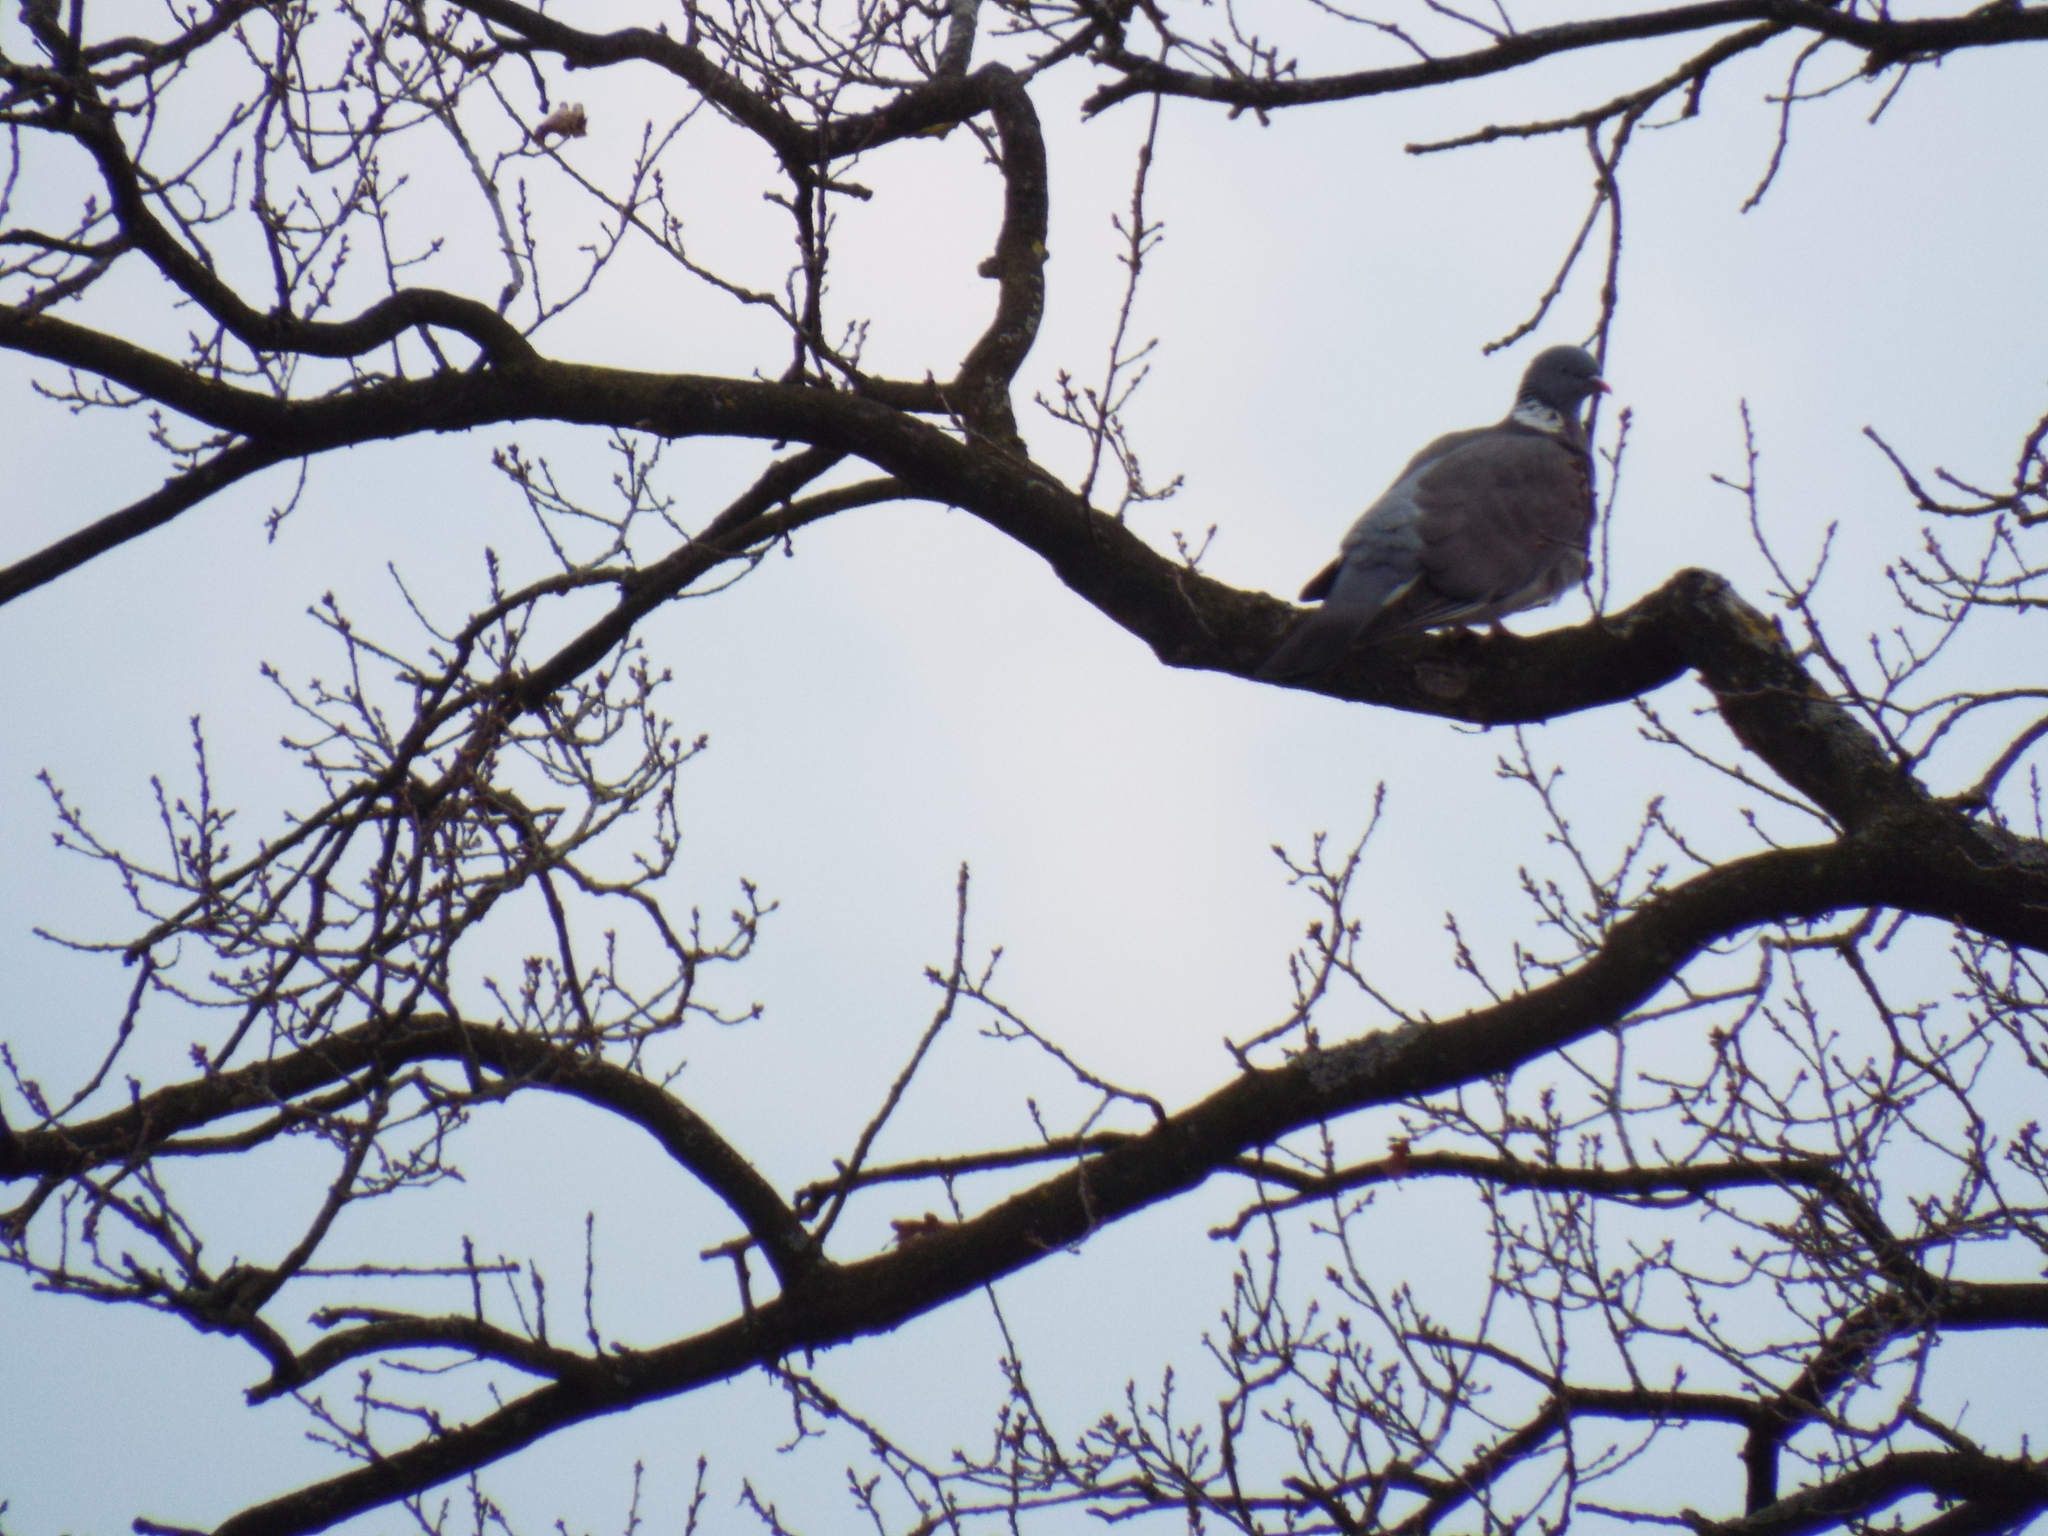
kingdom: Animalia
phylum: Chordata
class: Aves
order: Columbiformes
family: Columbidae
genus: Columba
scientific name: Columba palumbus
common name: Common wood pigeon
